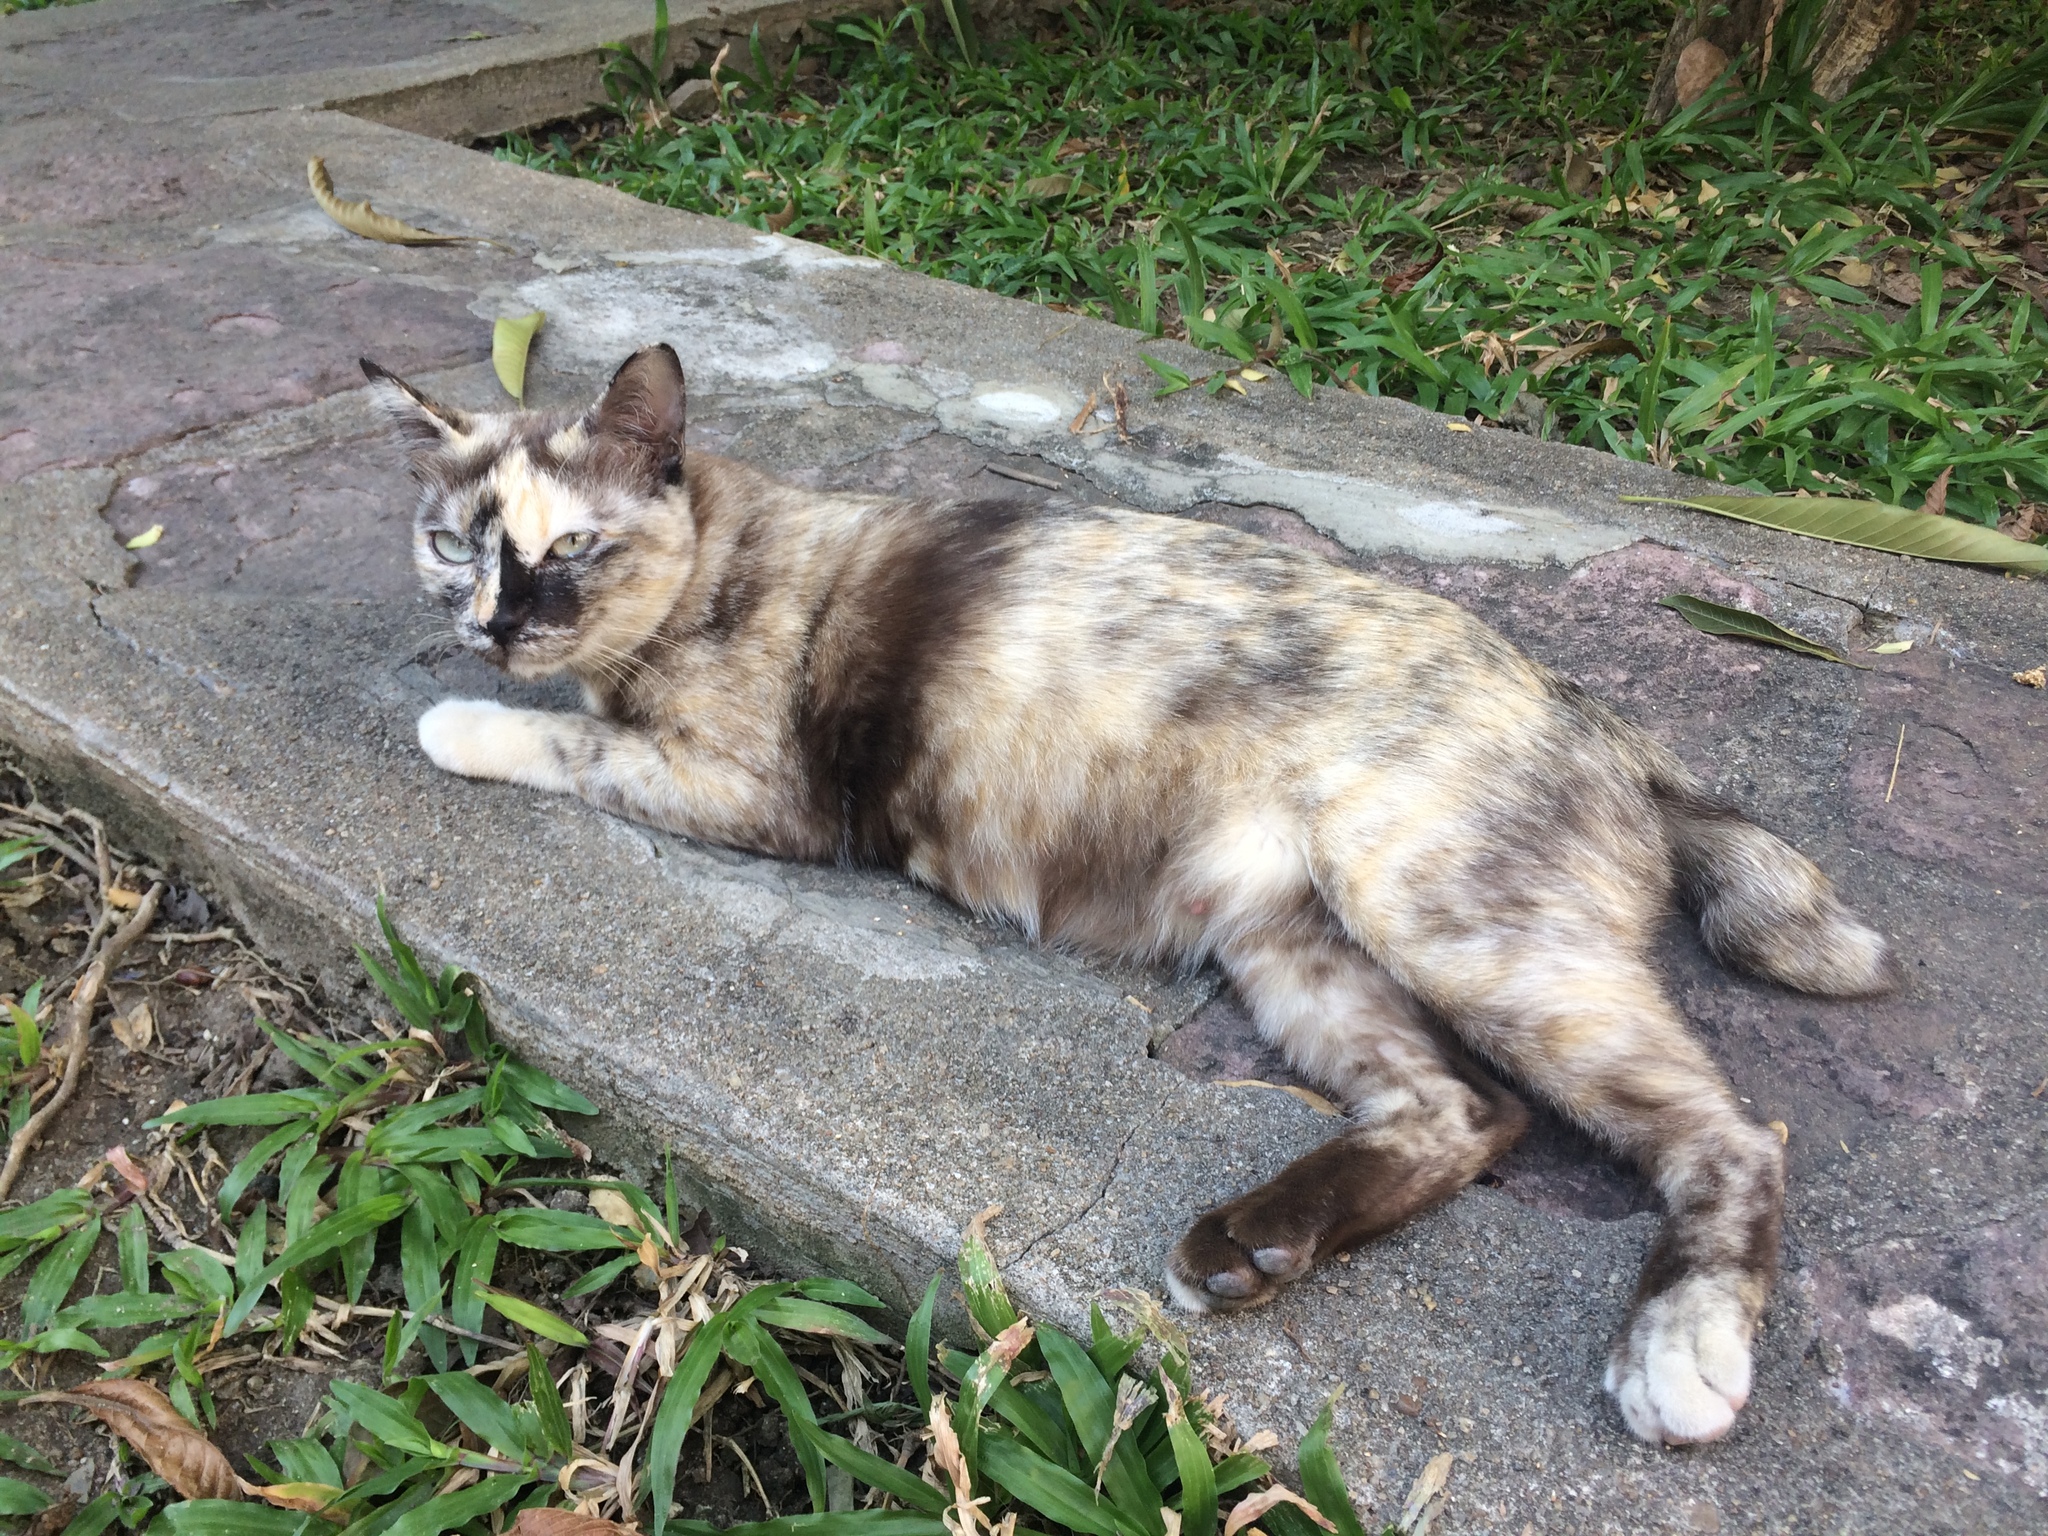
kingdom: Animalia
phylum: Chordata
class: Mammalia
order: Carnivora
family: Felidae
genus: Felis
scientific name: Felis catus
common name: Domestic cat
